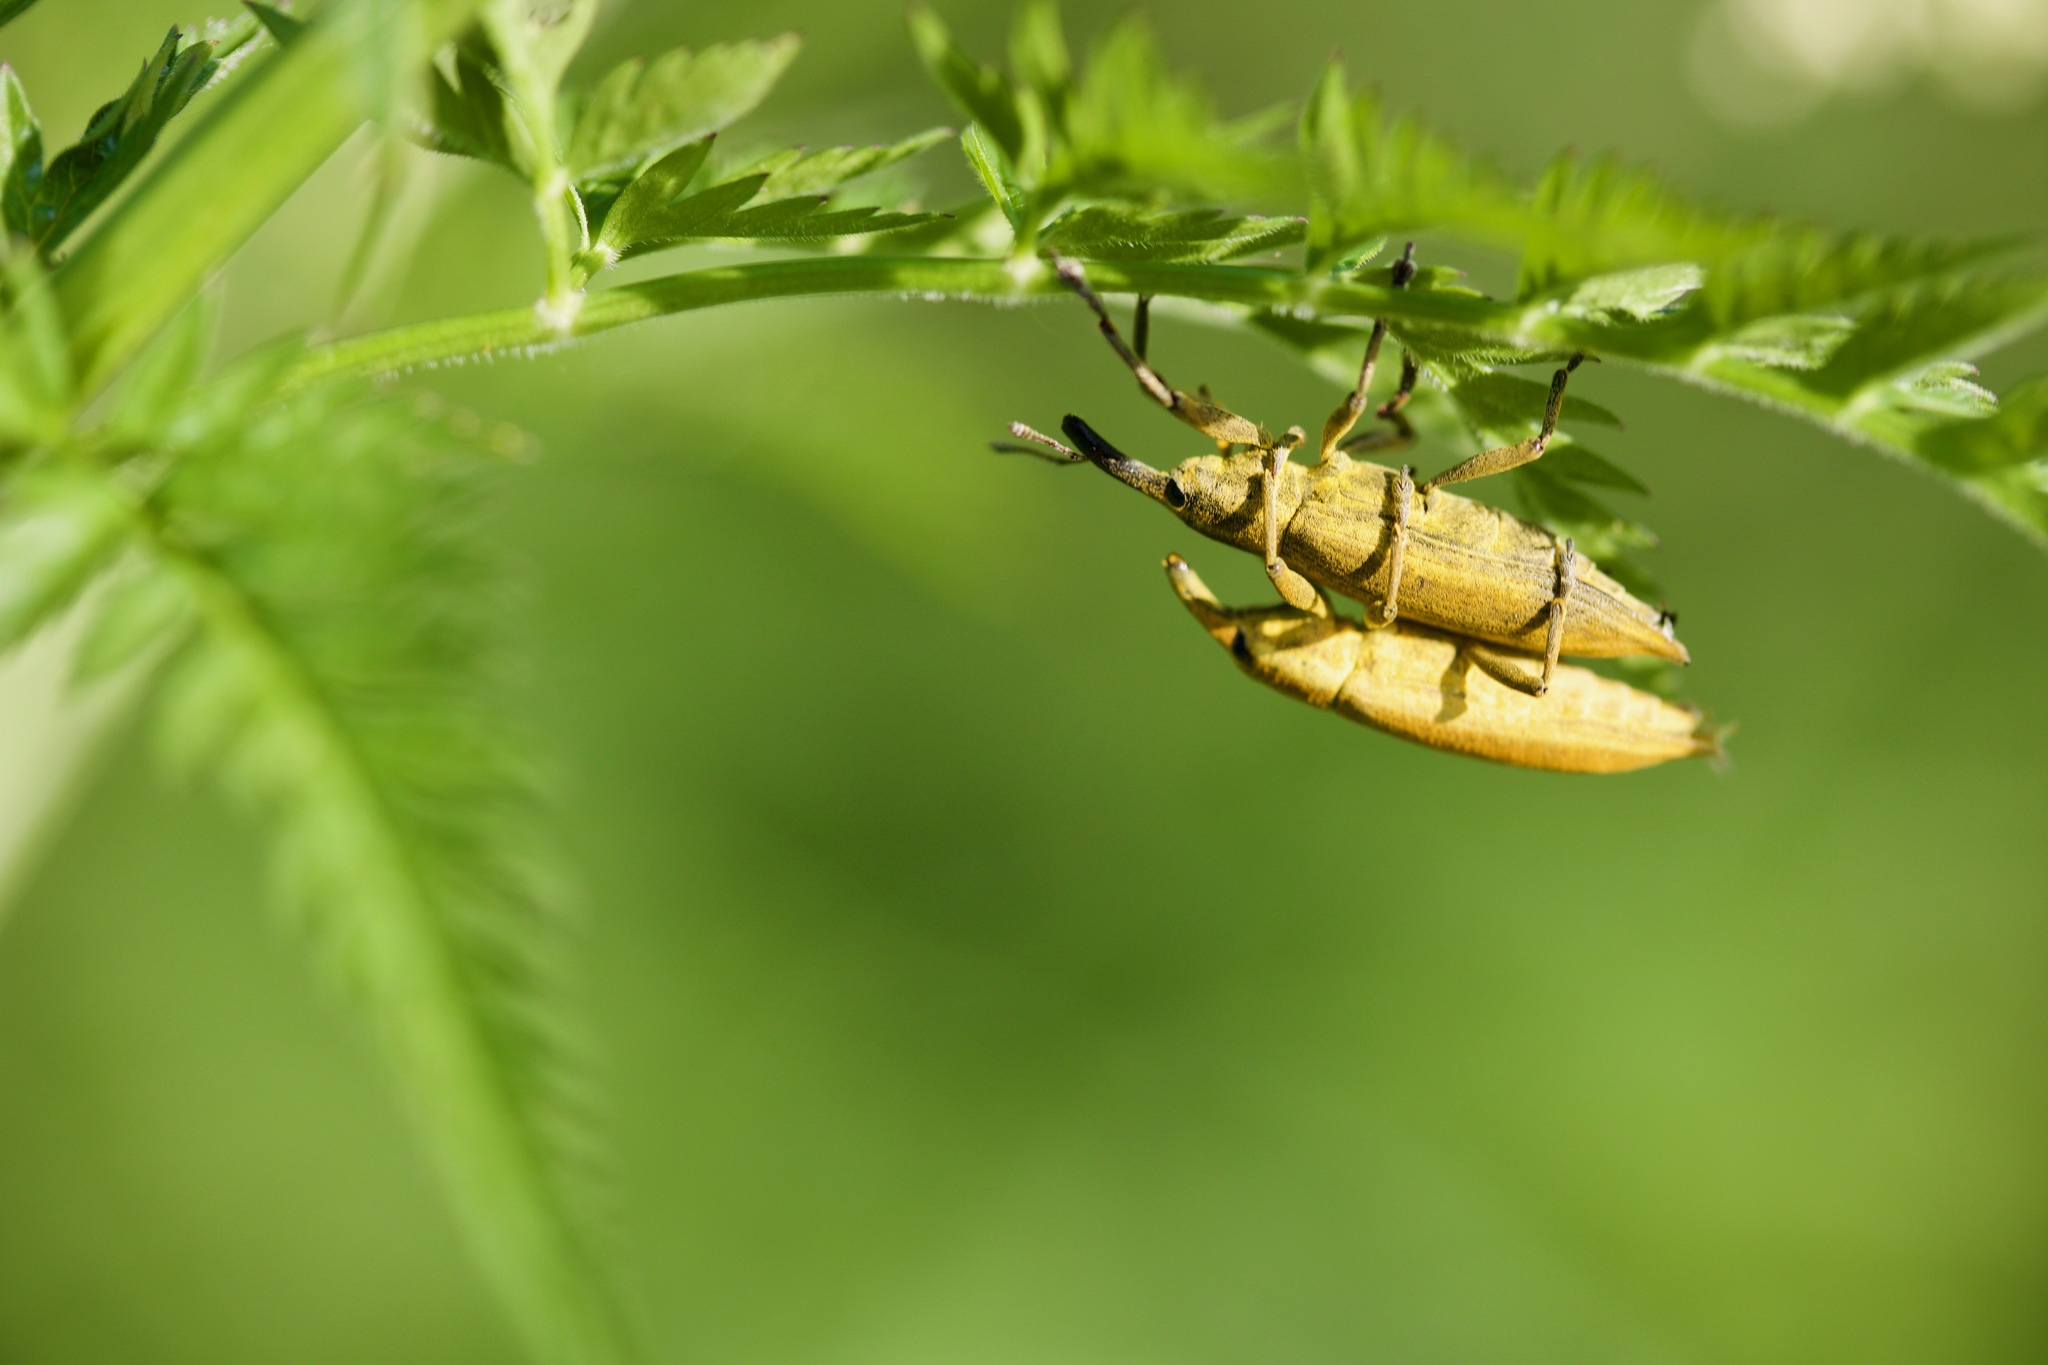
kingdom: Animalia
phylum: Arthropoda
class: Insecta
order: Coleoptera
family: Curculionidae
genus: Lixus
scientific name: Lixus iridis
